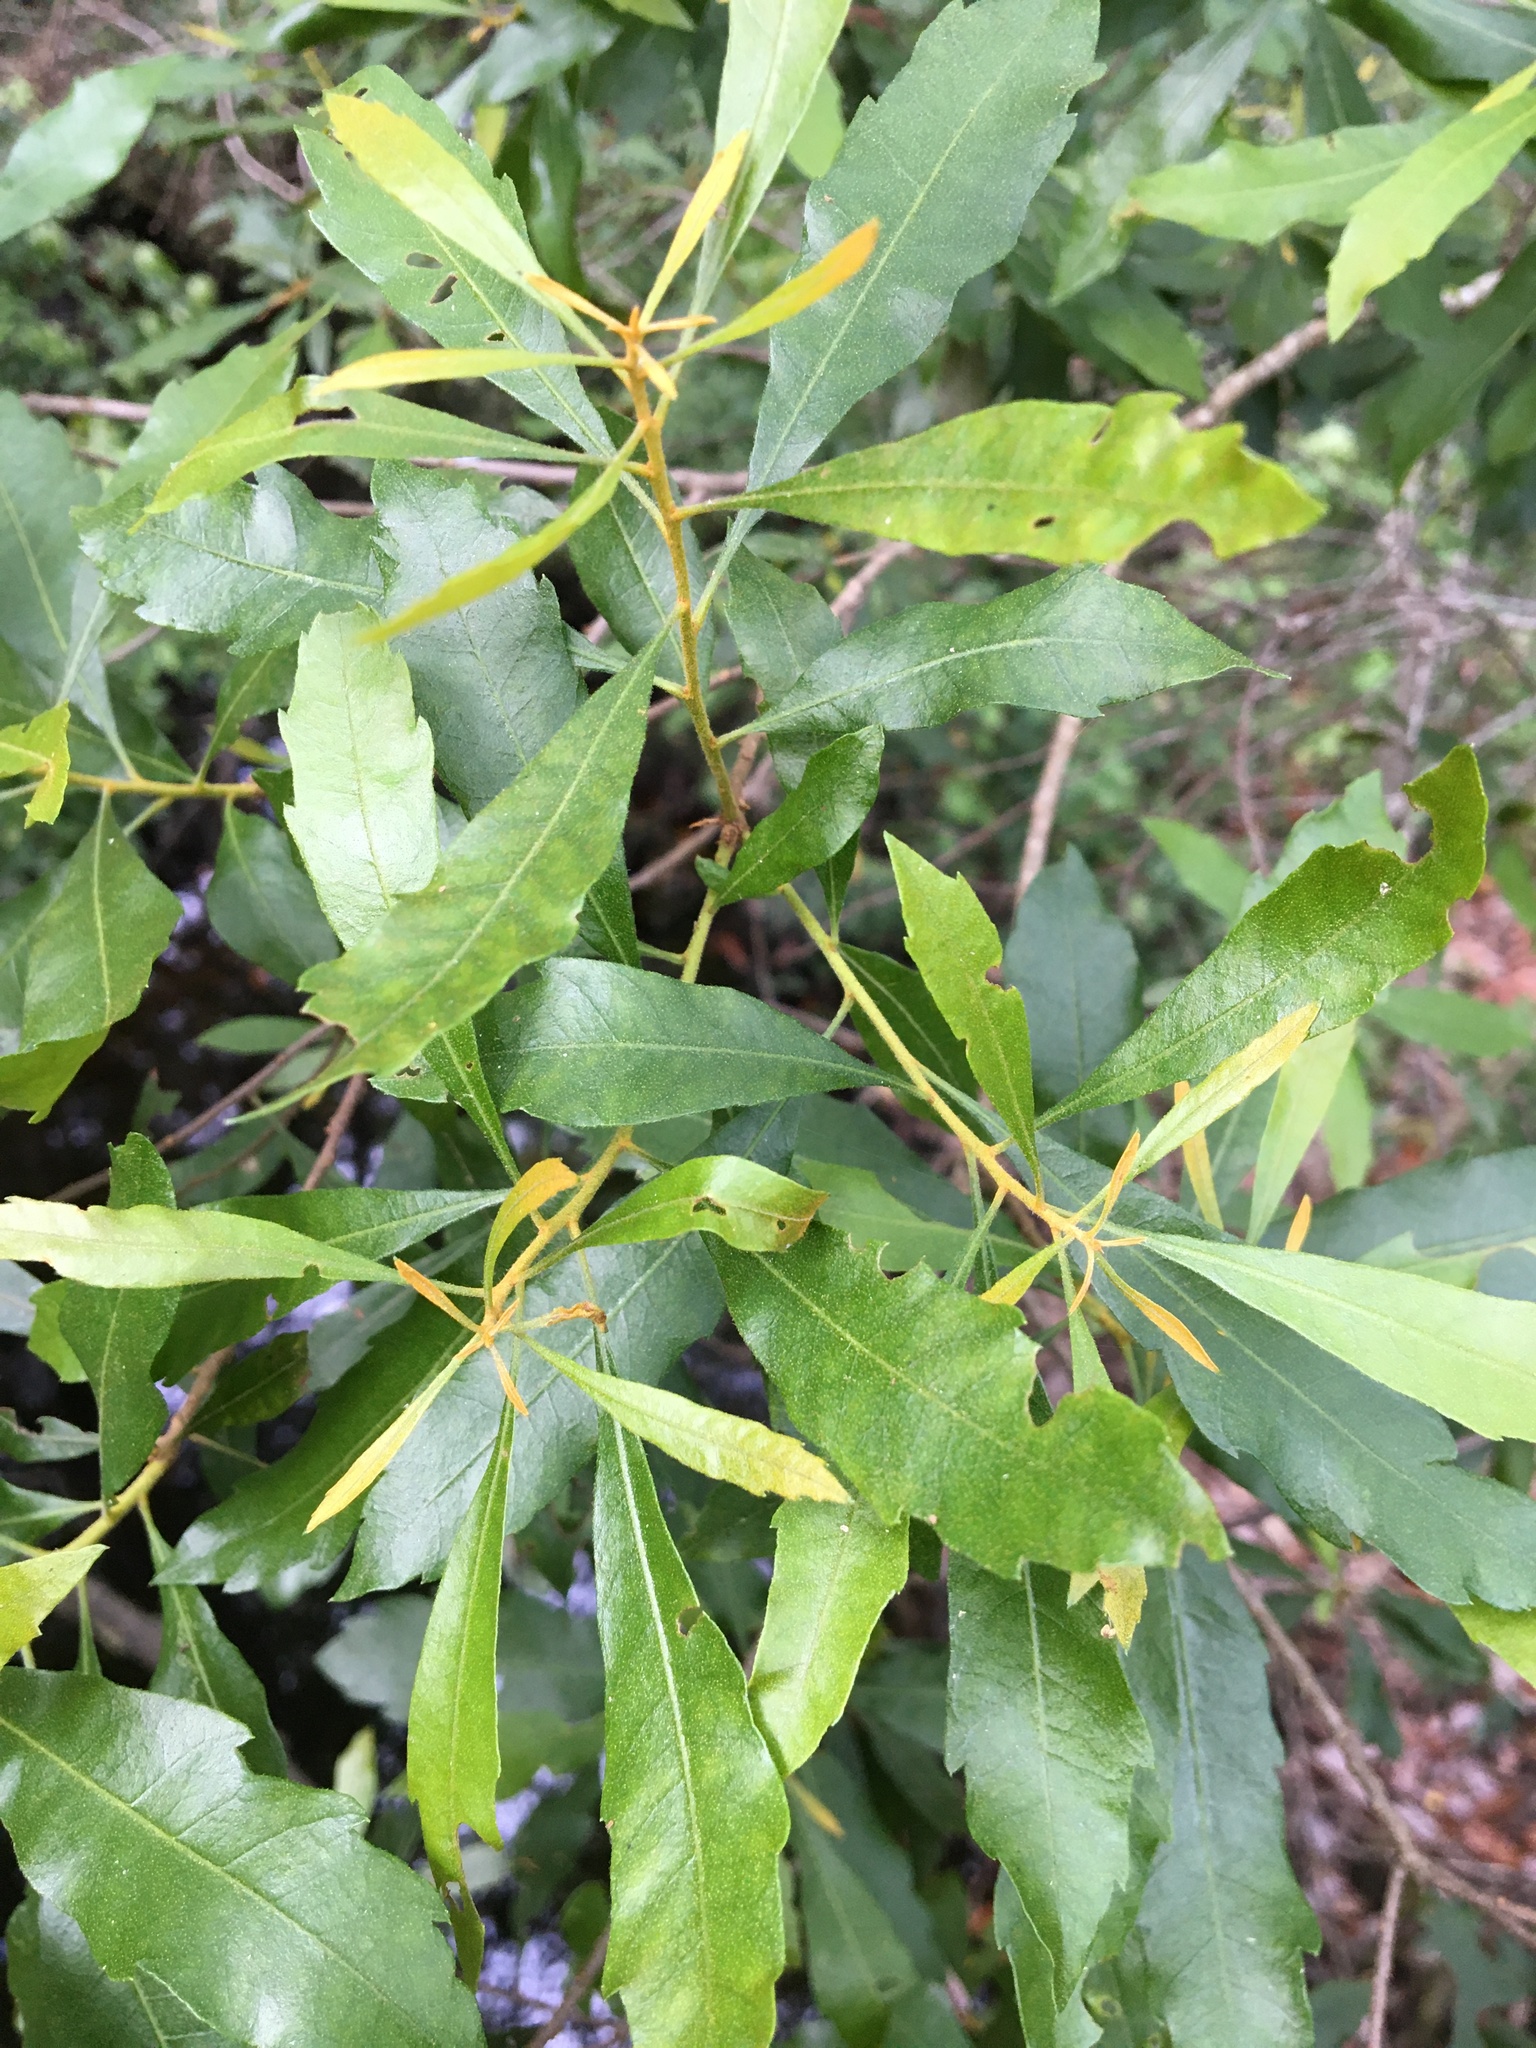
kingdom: Plantae
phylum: Tracheophyta
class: Magnoliopsida
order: Fagales
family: Myricaceae
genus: Morella
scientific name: Morella cerifera
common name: Wax myrtle
